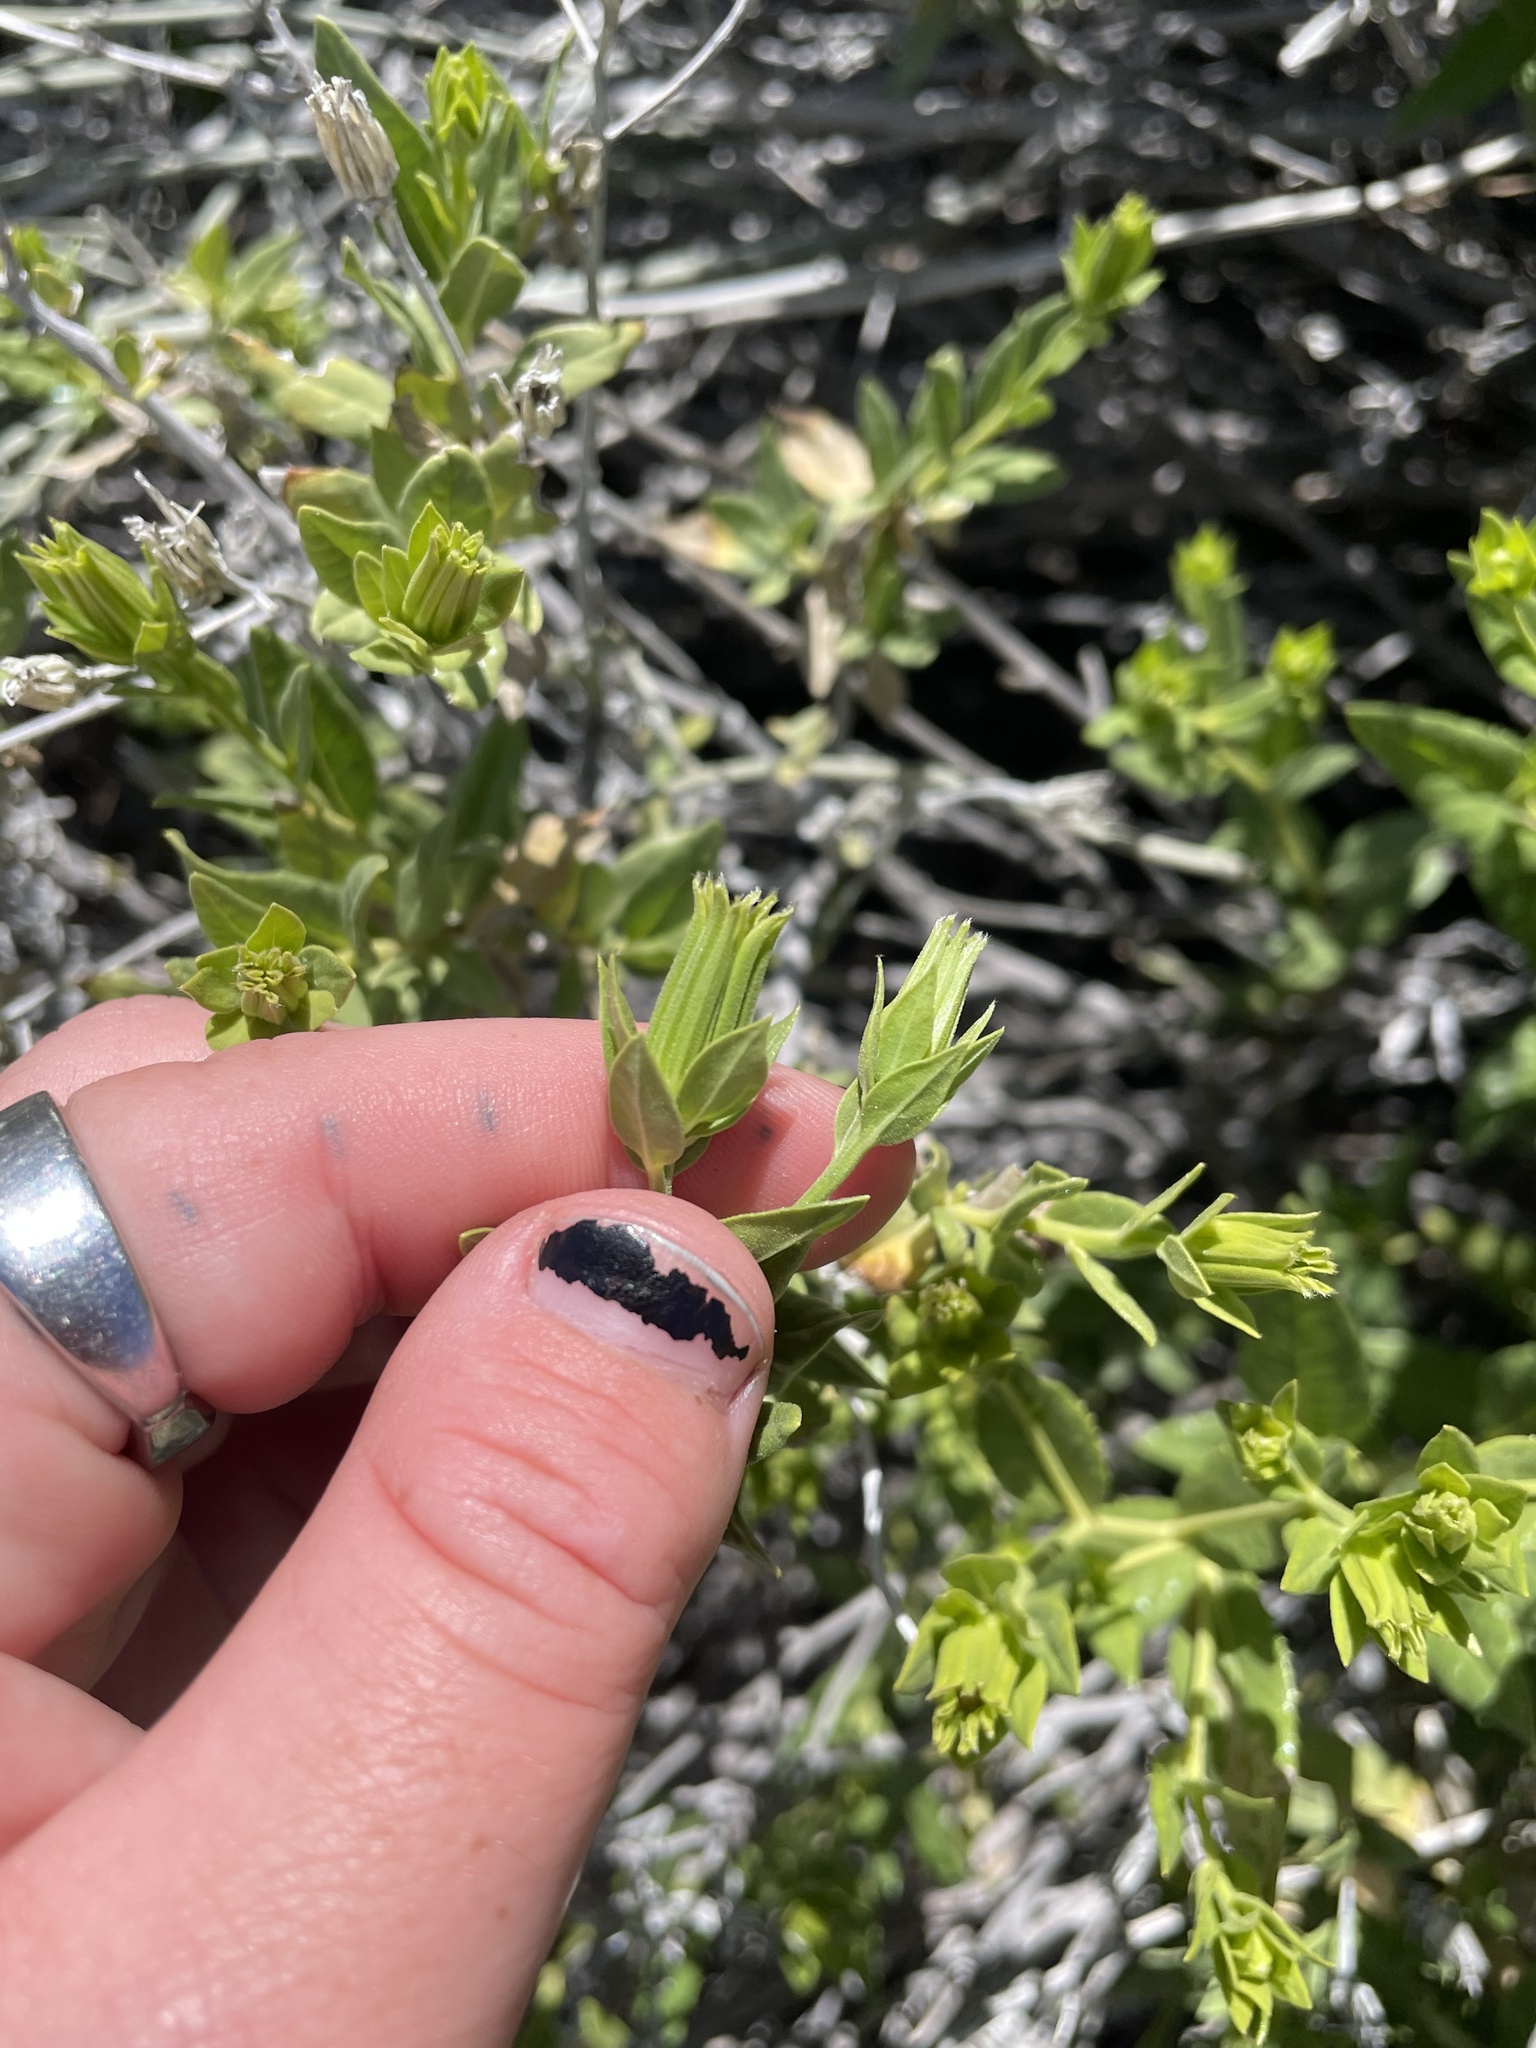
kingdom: Plantae
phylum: Tracheophyta
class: Magnoliopsida
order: Asterales
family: Asteraceae
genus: Trixis
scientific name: Trixis californica
